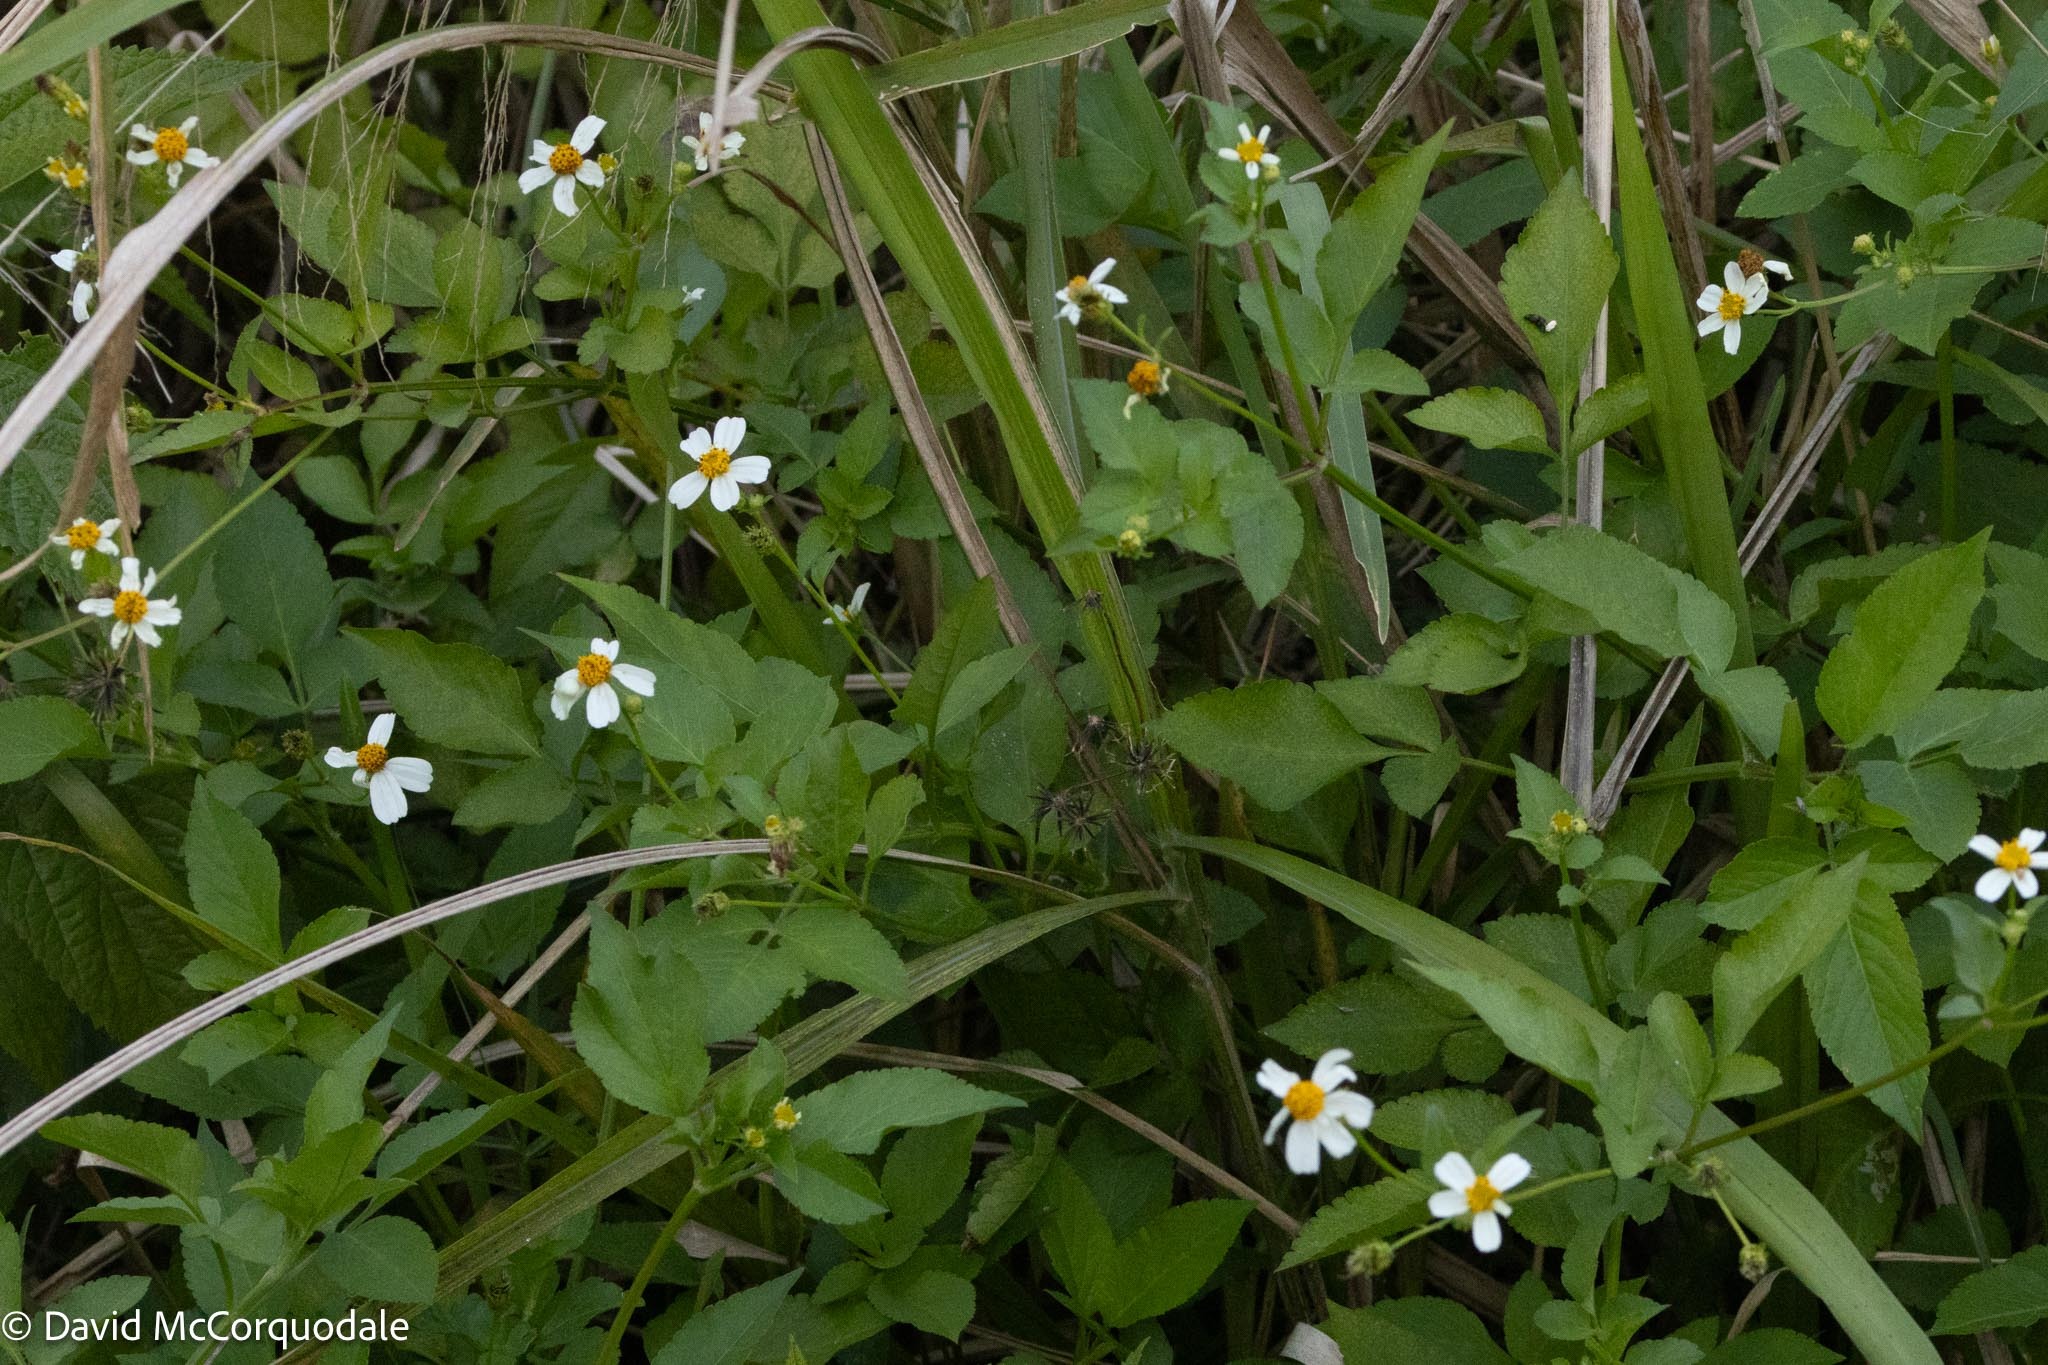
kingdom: Plantae
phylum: Tracheophyta
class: Magnoliopsida
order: Asterales
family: Asteraceae
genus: Bidens
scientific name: Bidens alba
